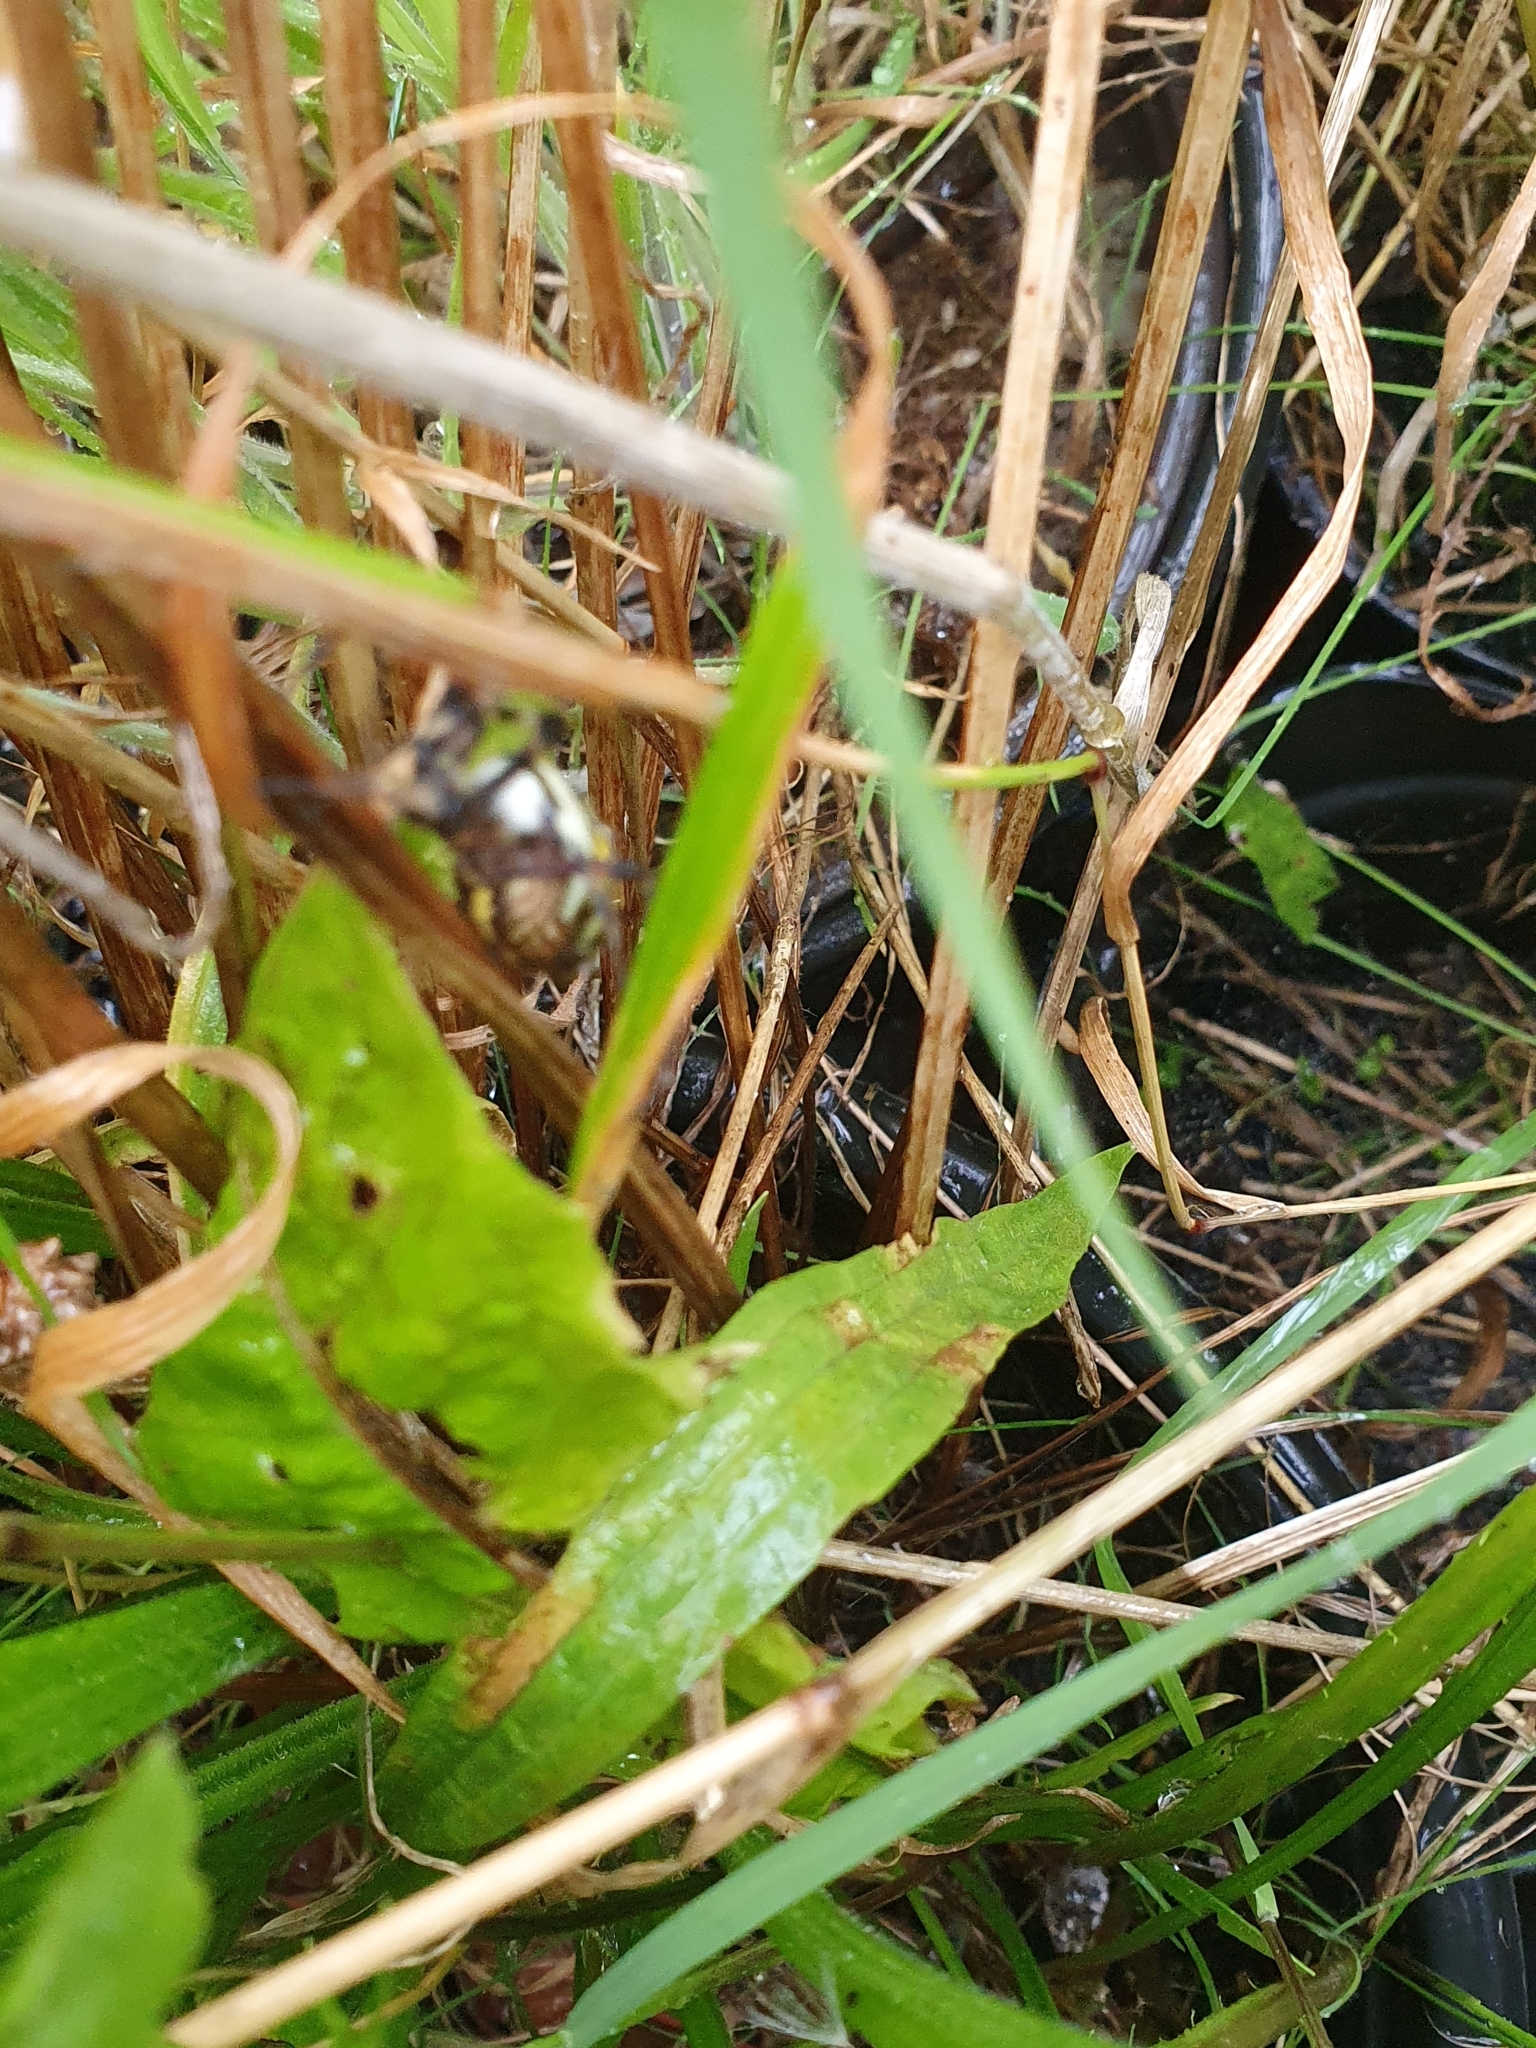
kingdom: Animalia
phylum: Arthropoda
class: Arachnida
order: Araneae
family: Araneidae
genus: Argiope
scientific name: Argiope bruennichi
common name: Wasp spider
